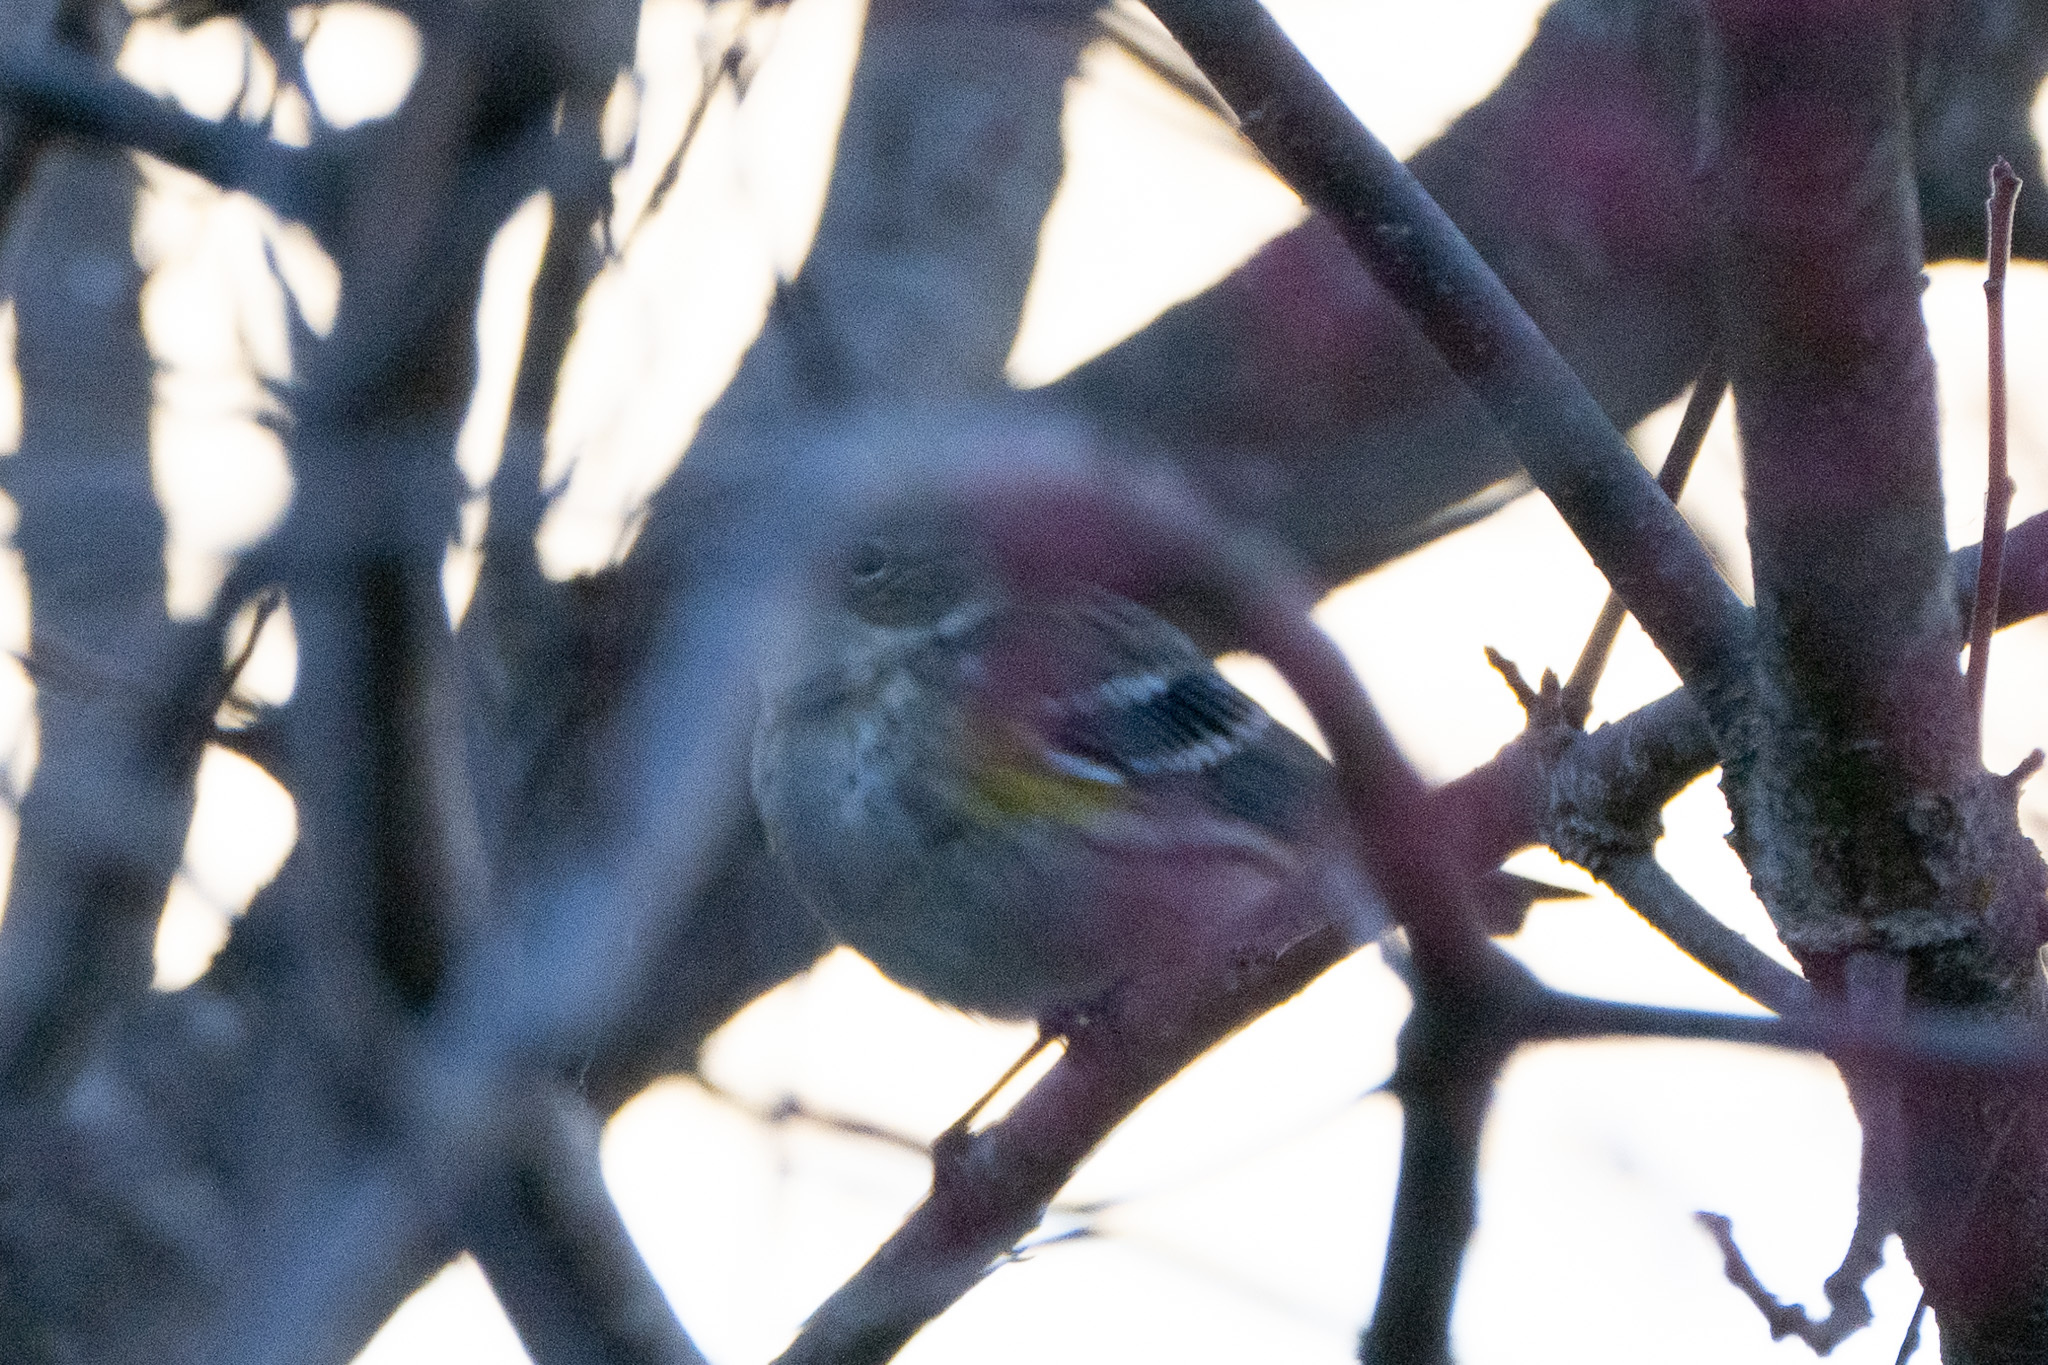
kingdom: Animalia
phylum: Chordata
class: Aves
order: Passeriformes
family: Parulidae
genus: Setophaga
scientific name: Setophaga coronata
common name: Myrtle warbler
